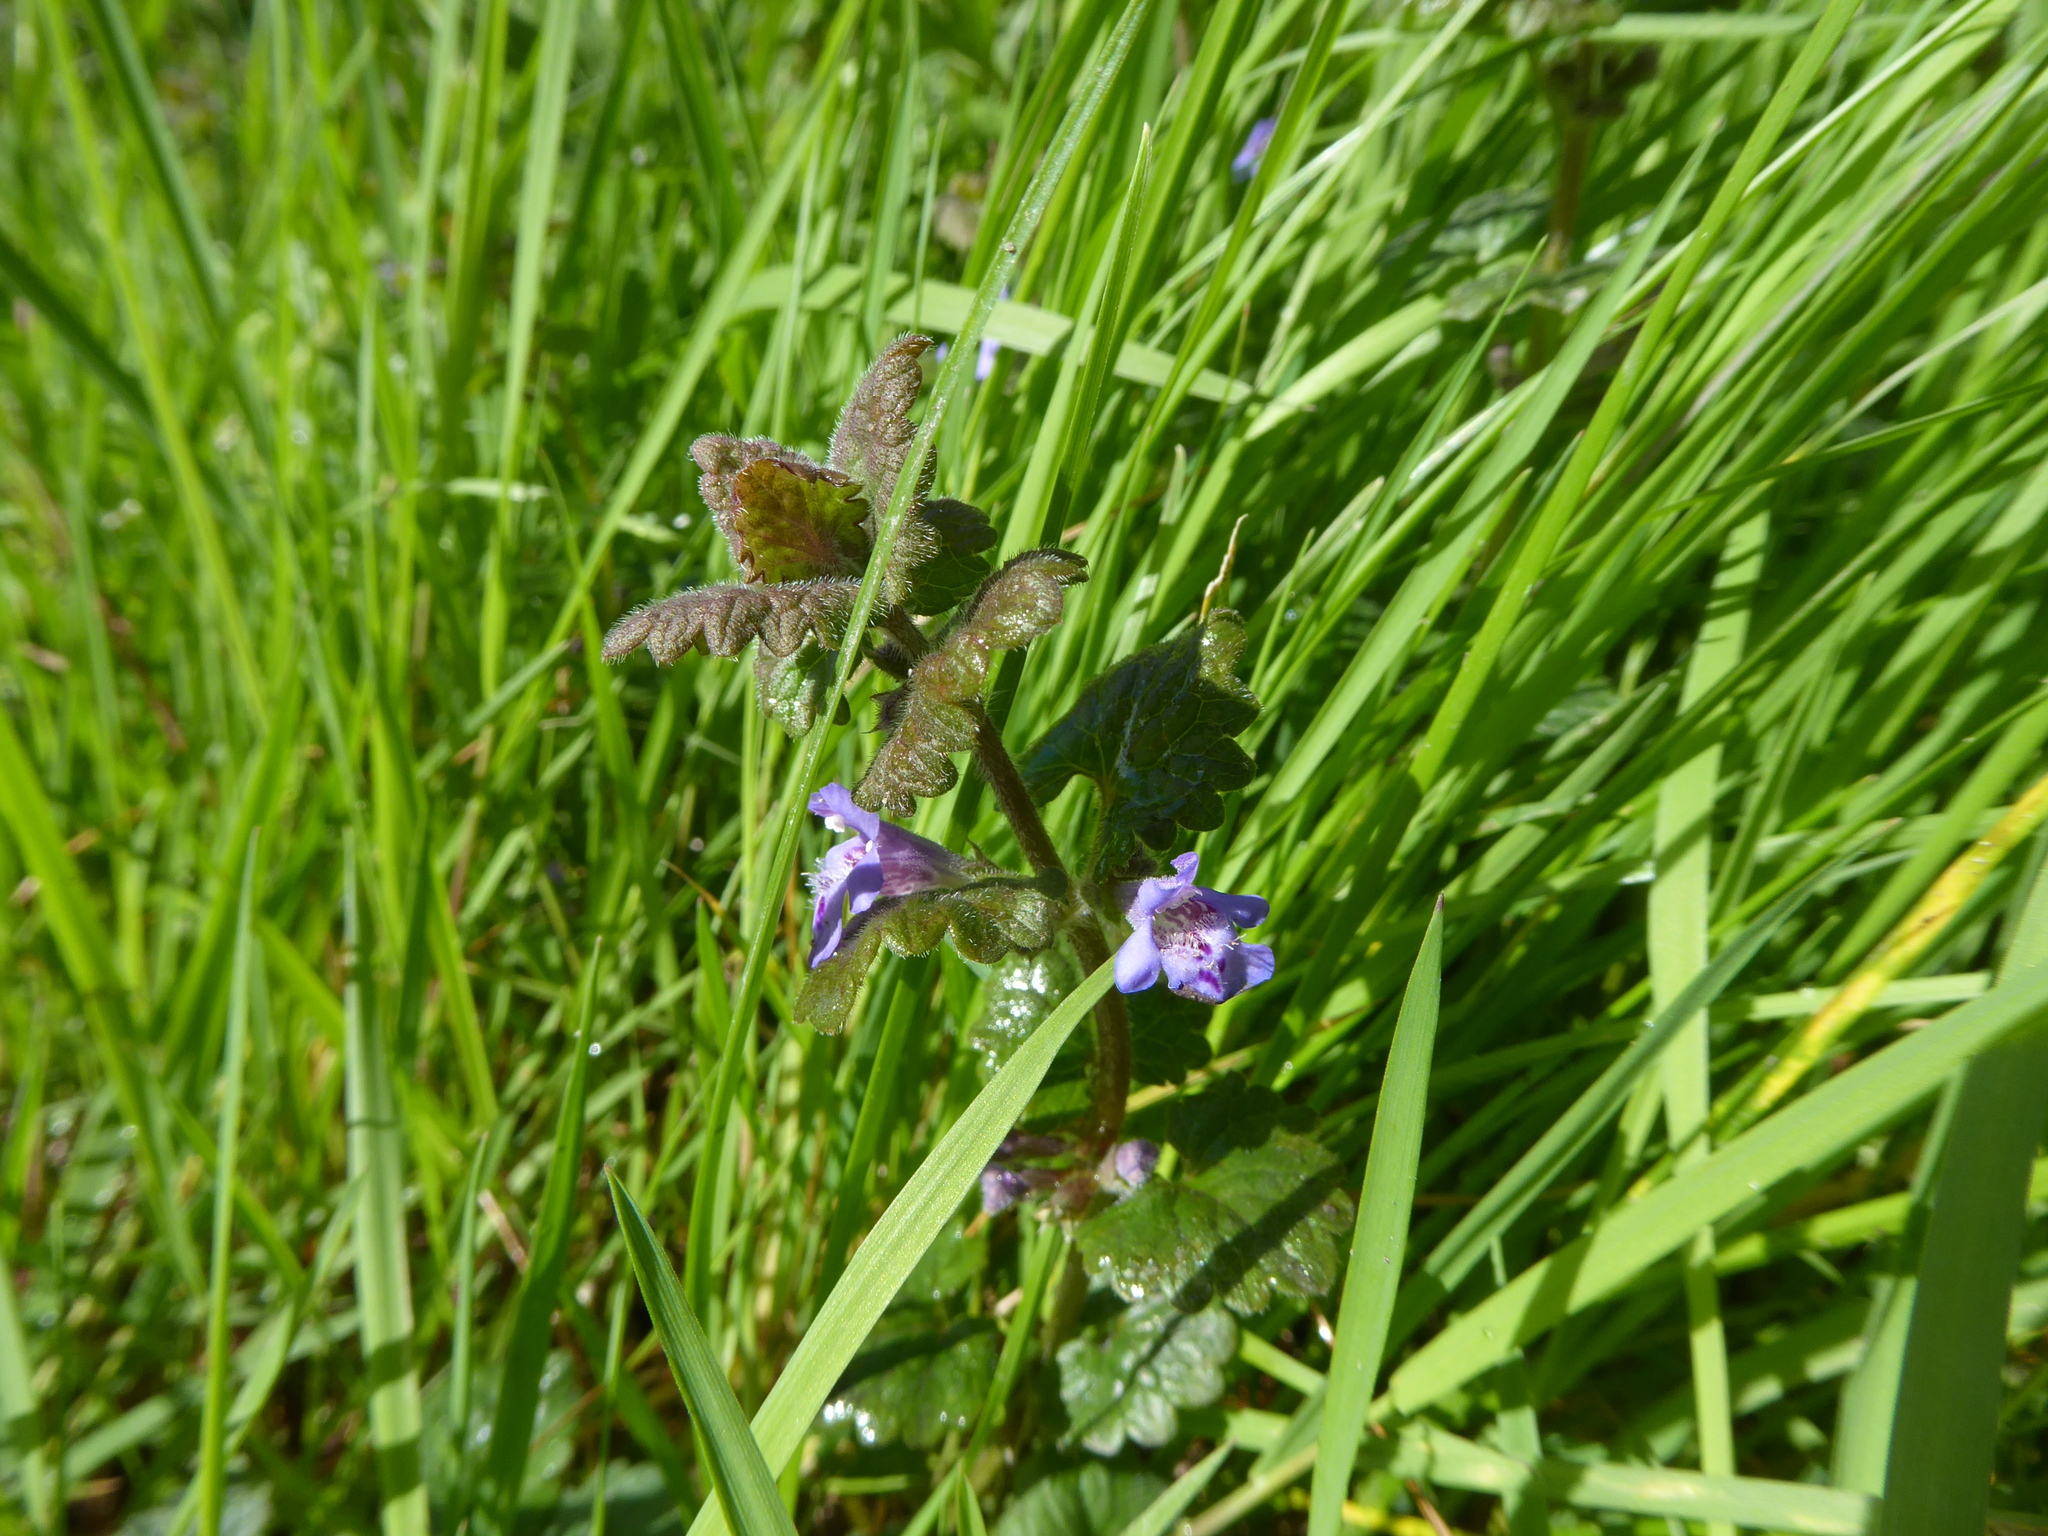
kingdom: Plantae
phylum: Tracheophyta
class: Magnoliopsida
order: Lamiales
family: Lamiaceae
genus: Glechoma
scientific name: Glechoma hederacea
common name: Ground ivy
